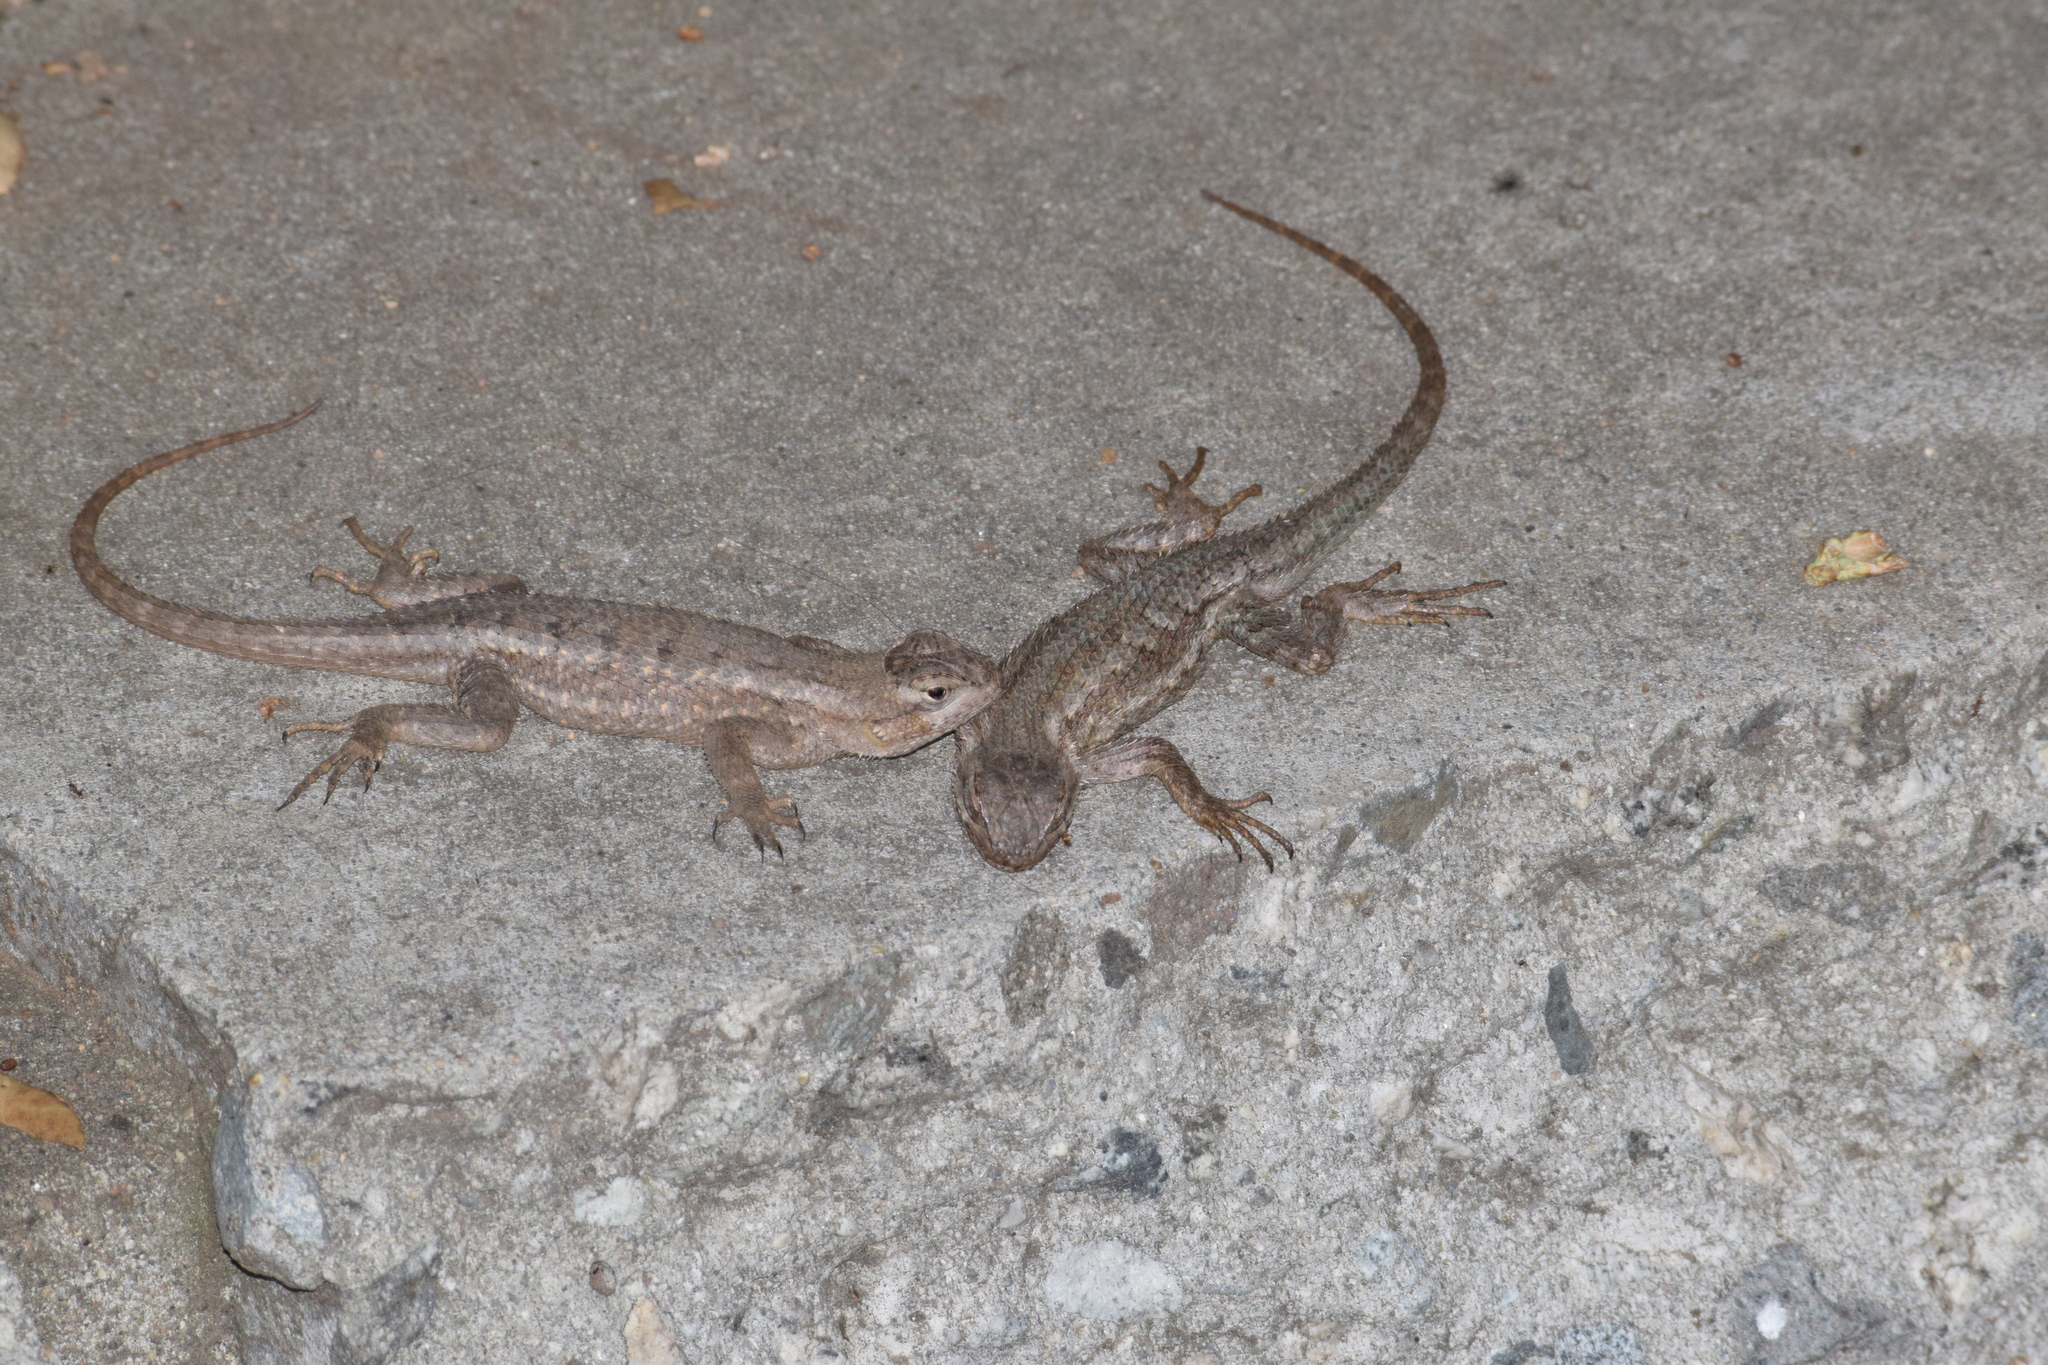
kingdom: Animalia
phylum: Chordata
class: Squamata
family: Phrynosomatidae
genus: Sceloporus
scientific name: Sceloporus occidentalis
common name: Western fence lizard
